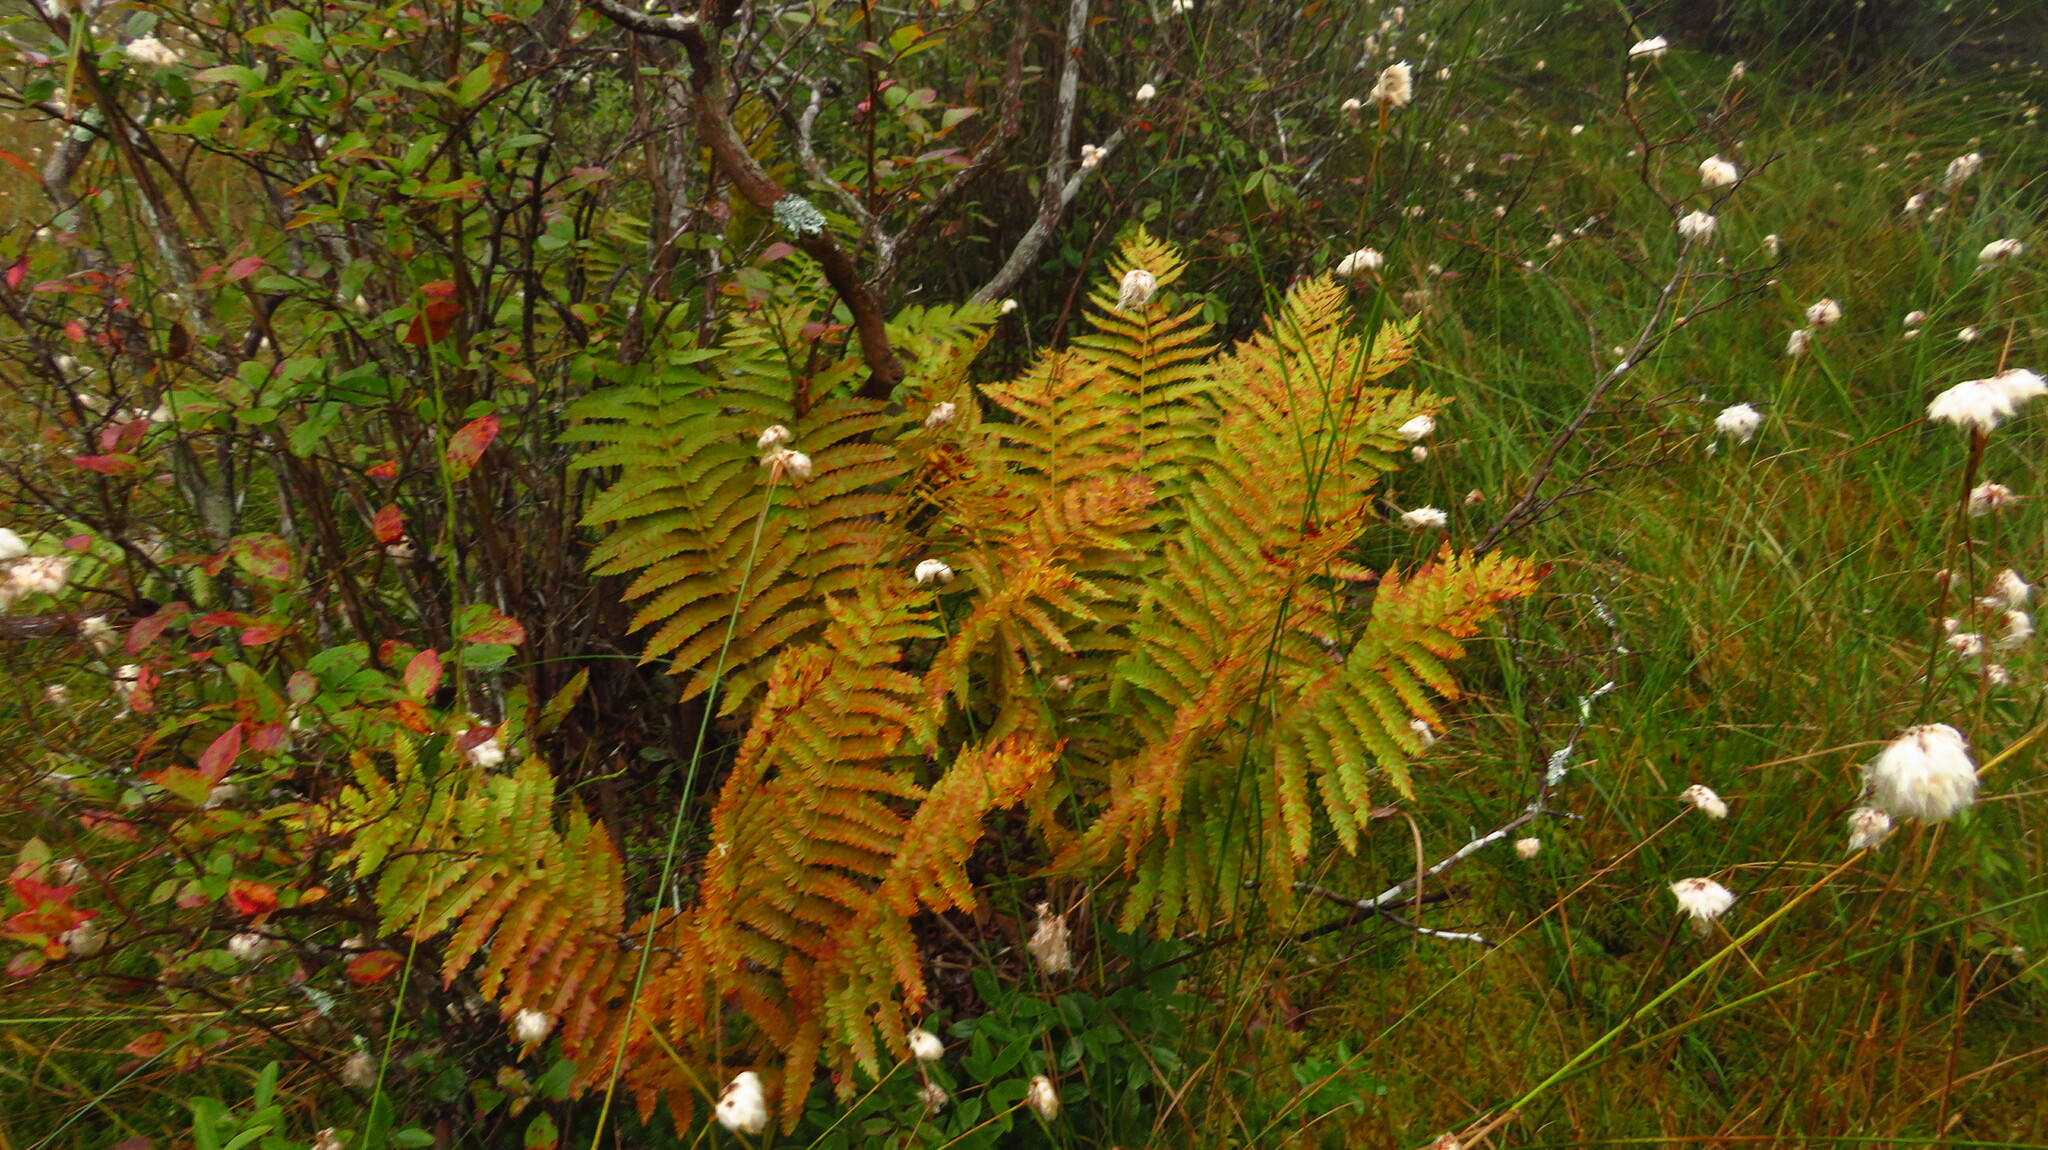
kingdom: Plantae
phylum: Tracheophyta
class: Polypodiopsida
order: Osmundales
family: Osmundaceae
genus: Osmundastrum
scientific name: Osmundastrum cinnamomeum
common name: Cinnamon fern
